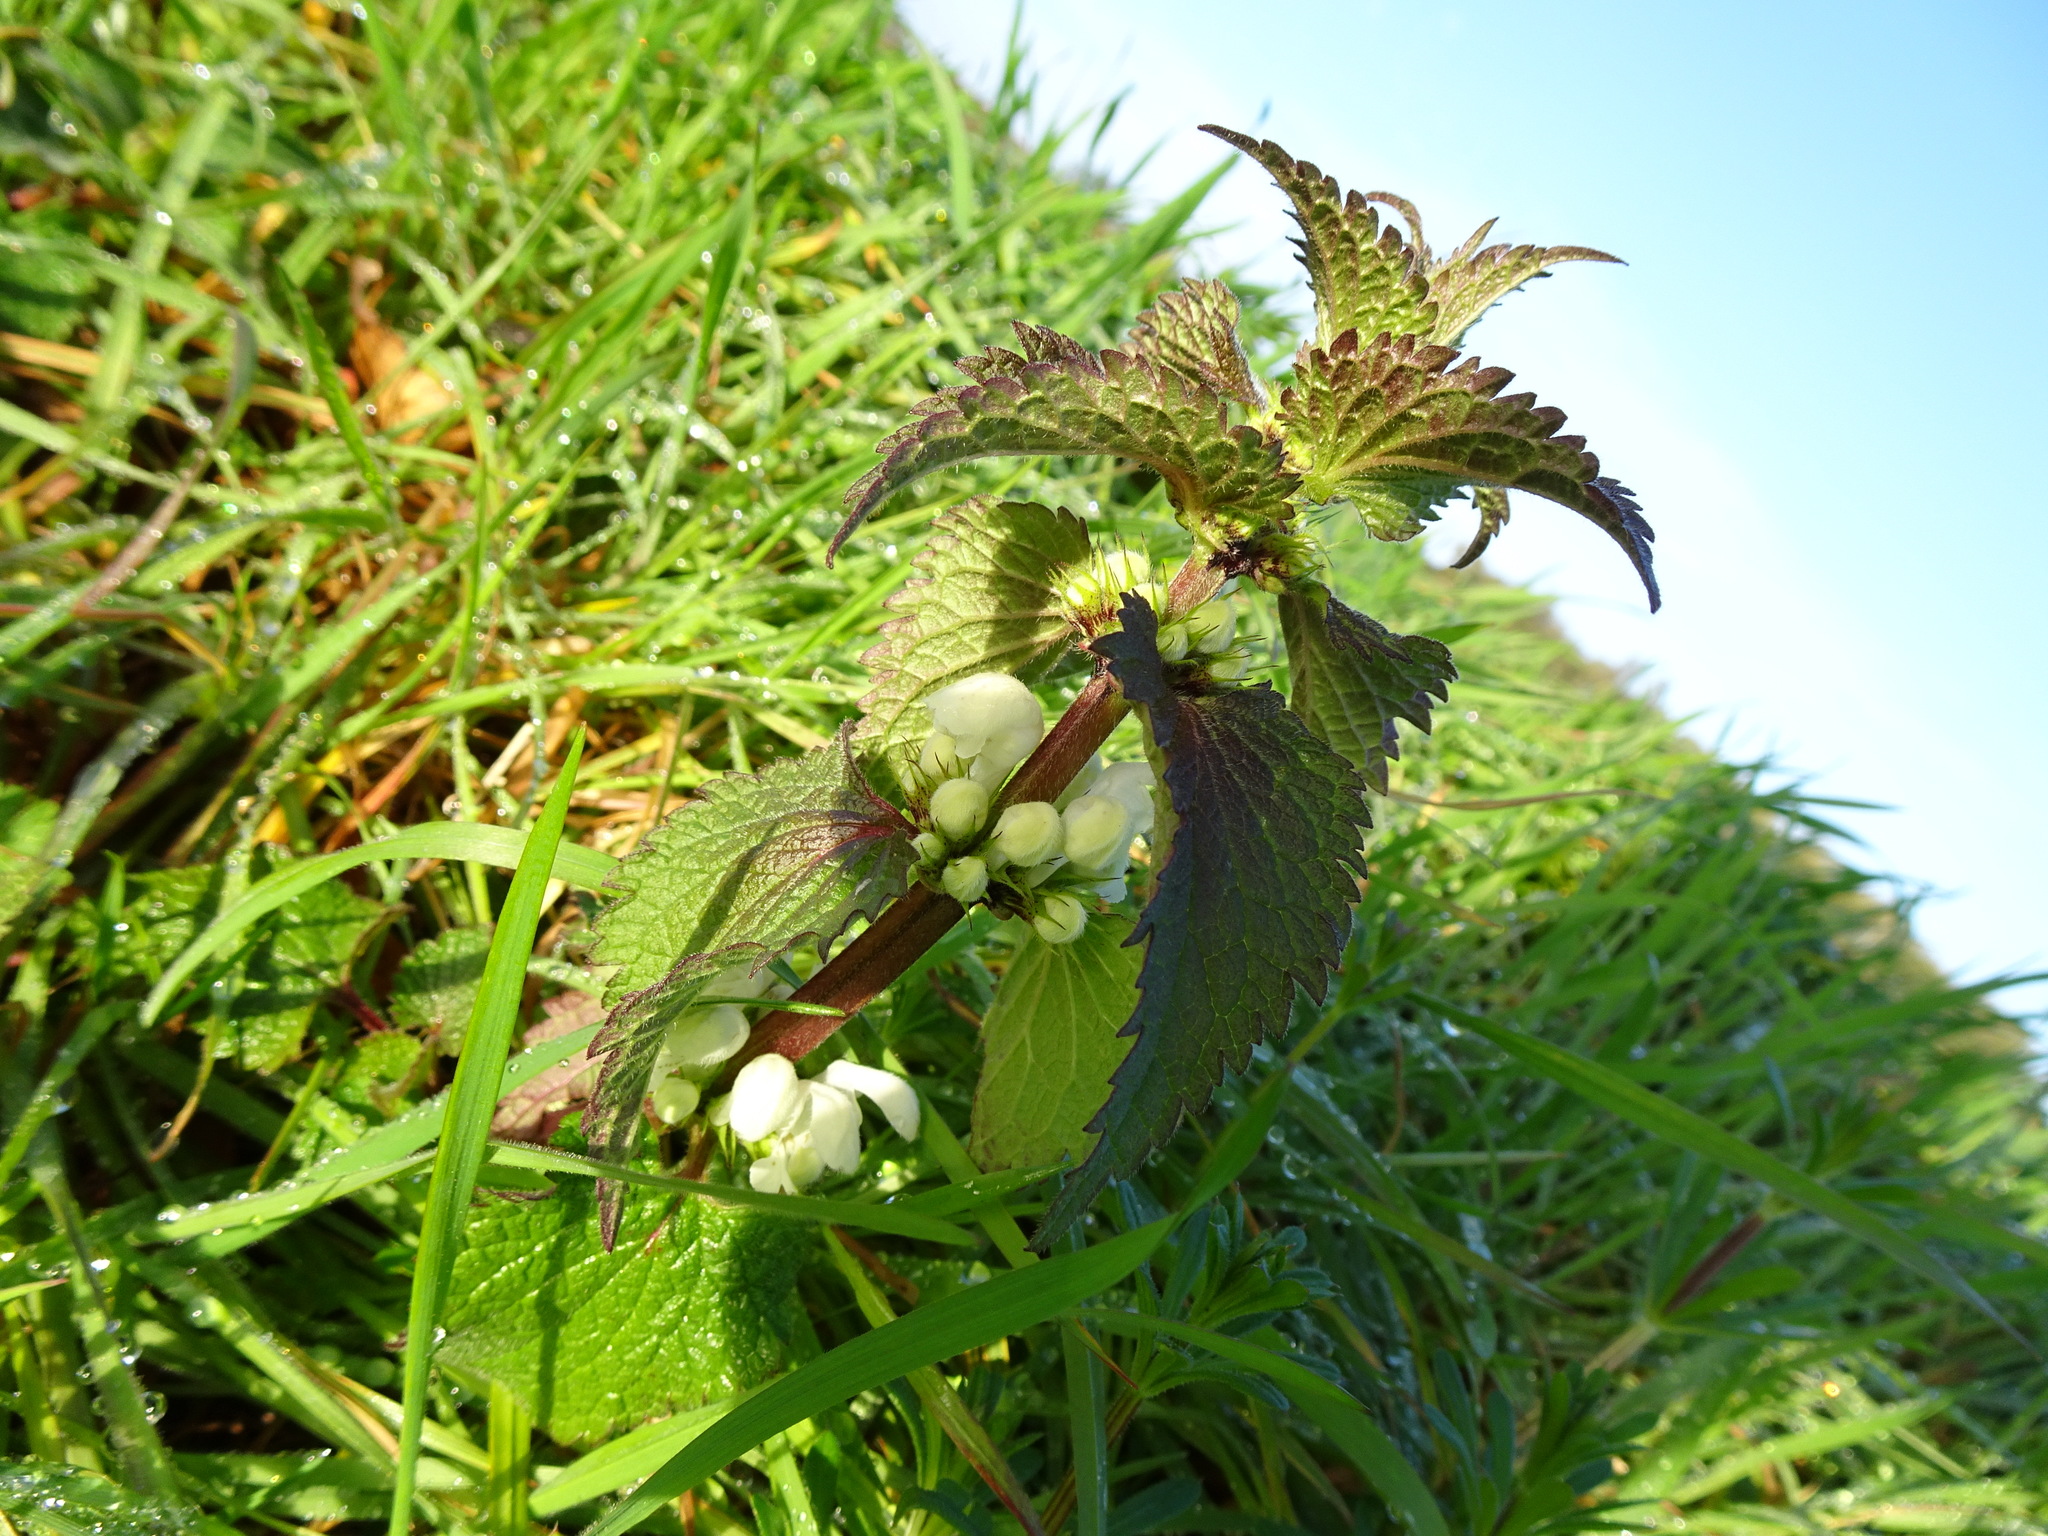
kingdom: Plantae
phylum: Tracheophyta
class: Magnoliopsida
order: Lamiales
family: Lamiaceae
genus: Lamium
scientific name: Lamium album
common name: White dead-nettle
